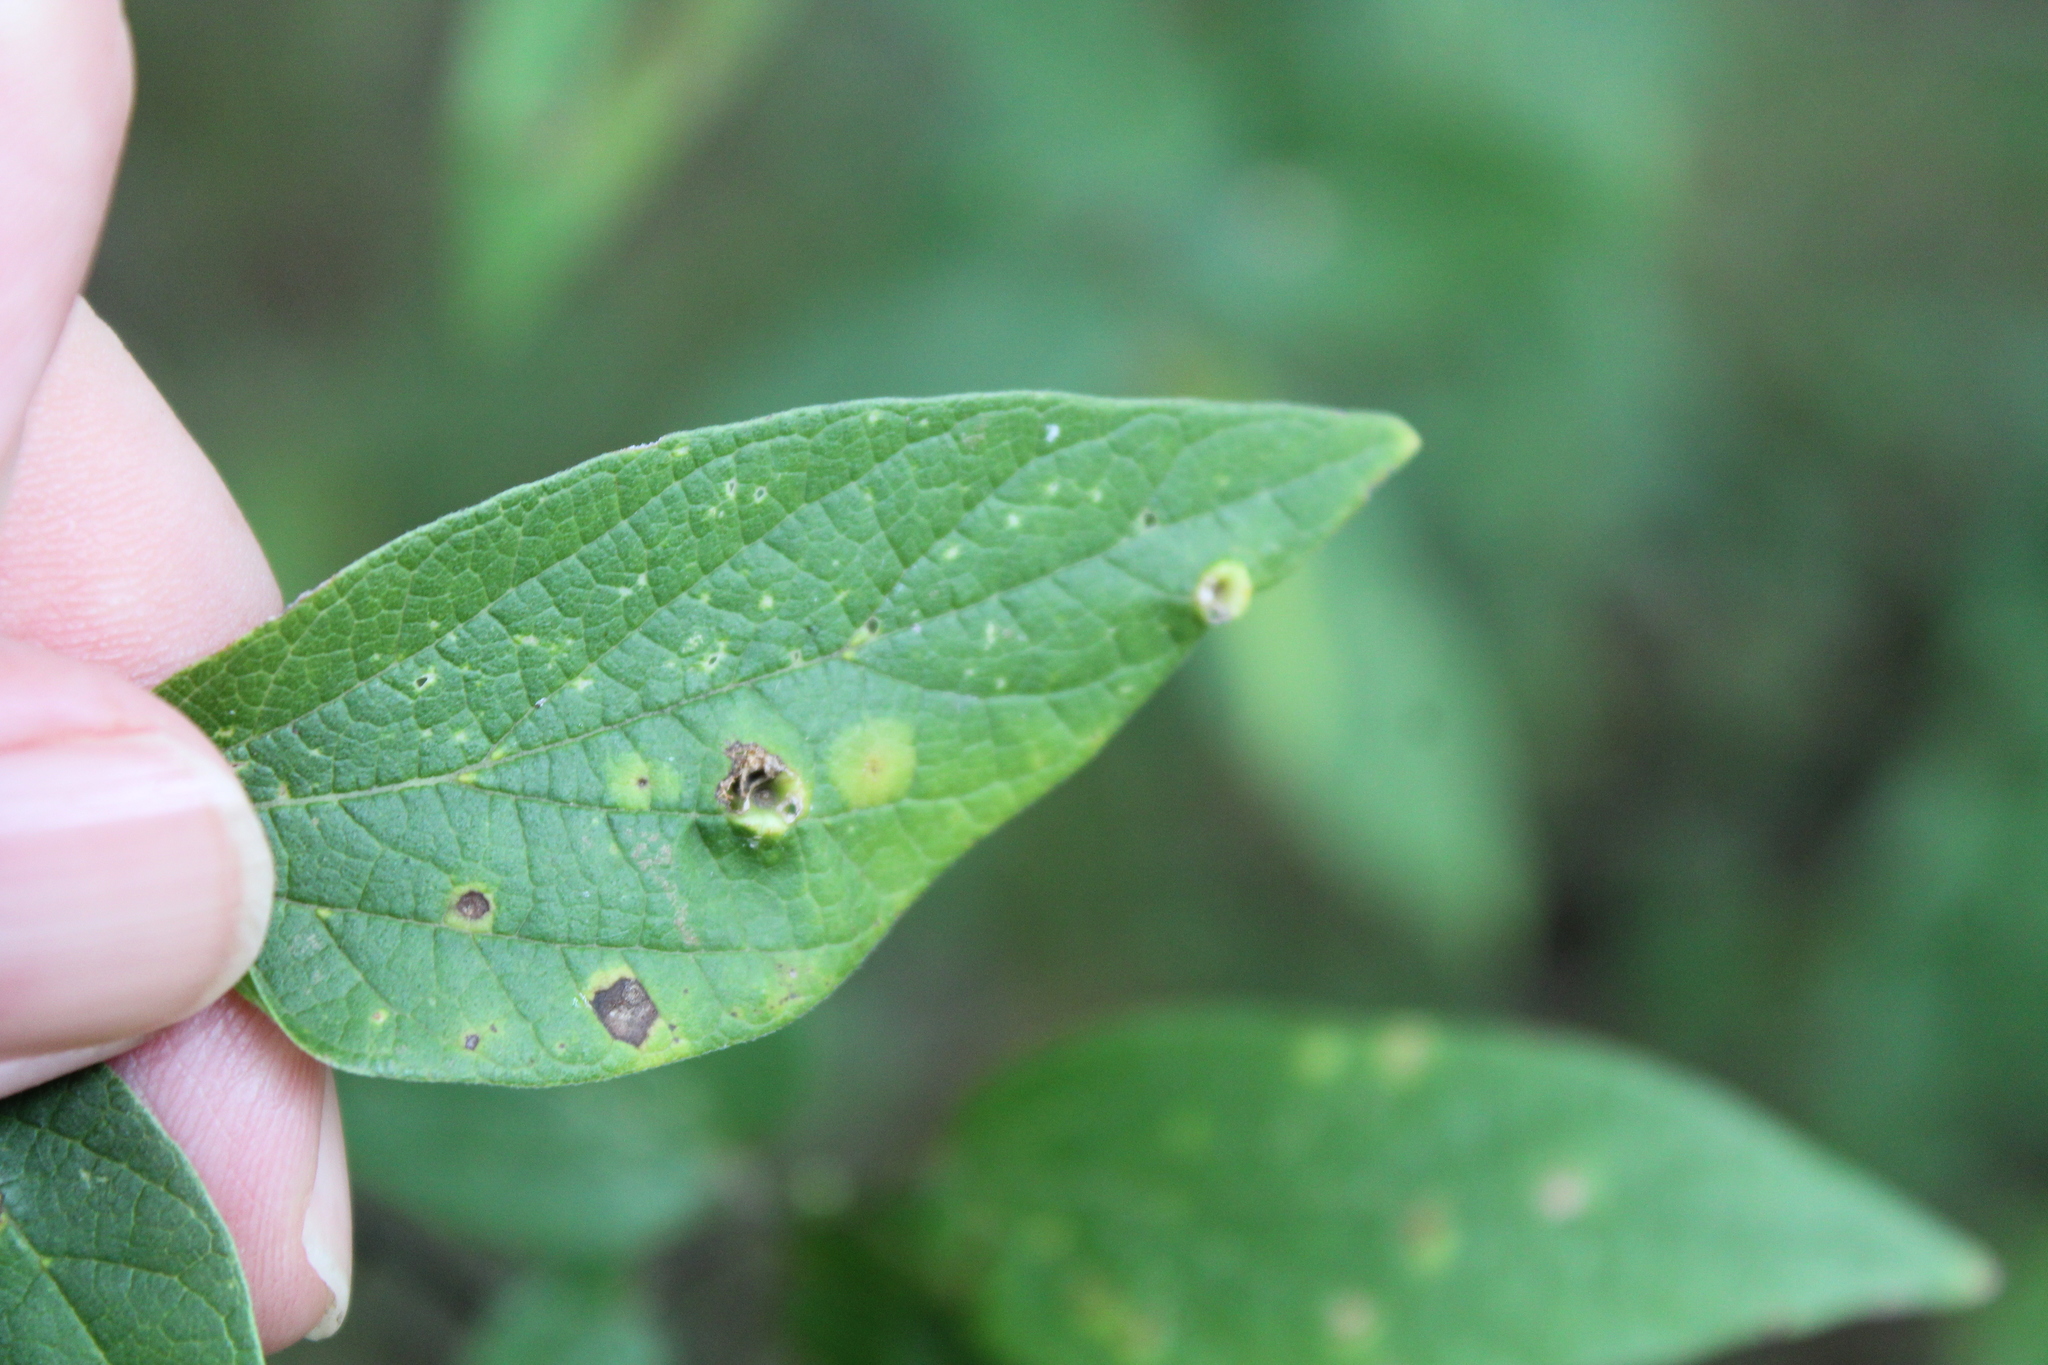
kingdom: Animalia
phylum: Arthropoda
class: Insecta
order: Hemiptera
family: Aphalaridae
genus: Pachypsylla
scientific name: Pachypsylla celtidismamma
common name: Hackberry nipplegall psyllid
